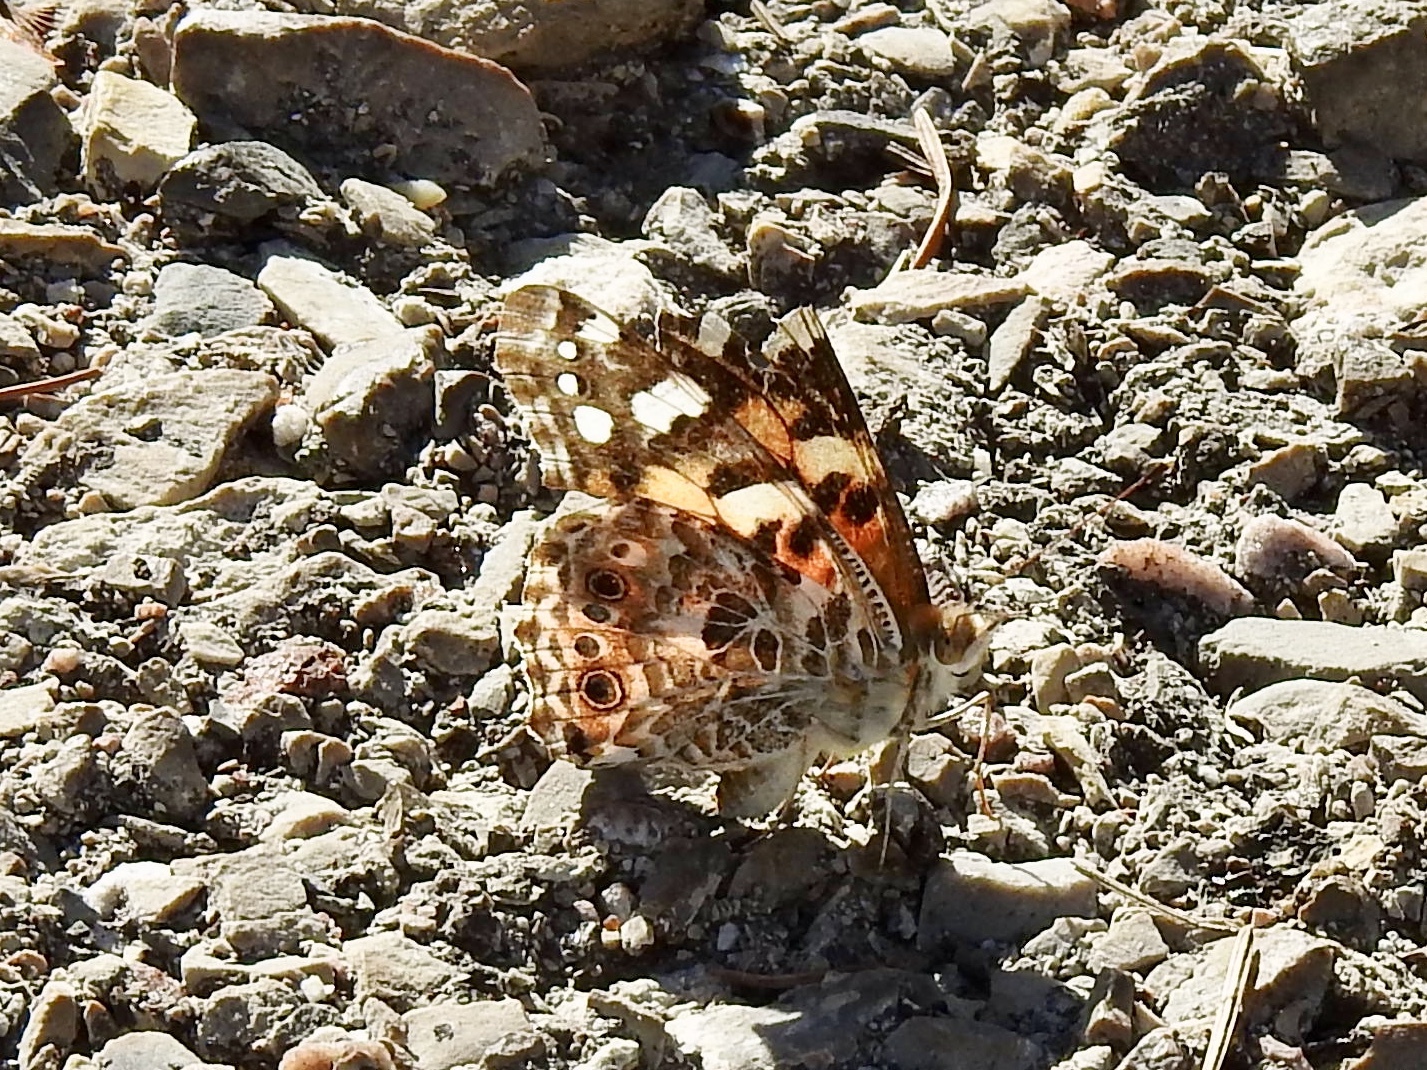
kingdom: Animalia
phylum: Arthropoda
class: Insecta
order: Lepidoptera
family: Nymphalidae
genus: Vanessa
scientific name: Vanessa cardui
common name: Painted lady
